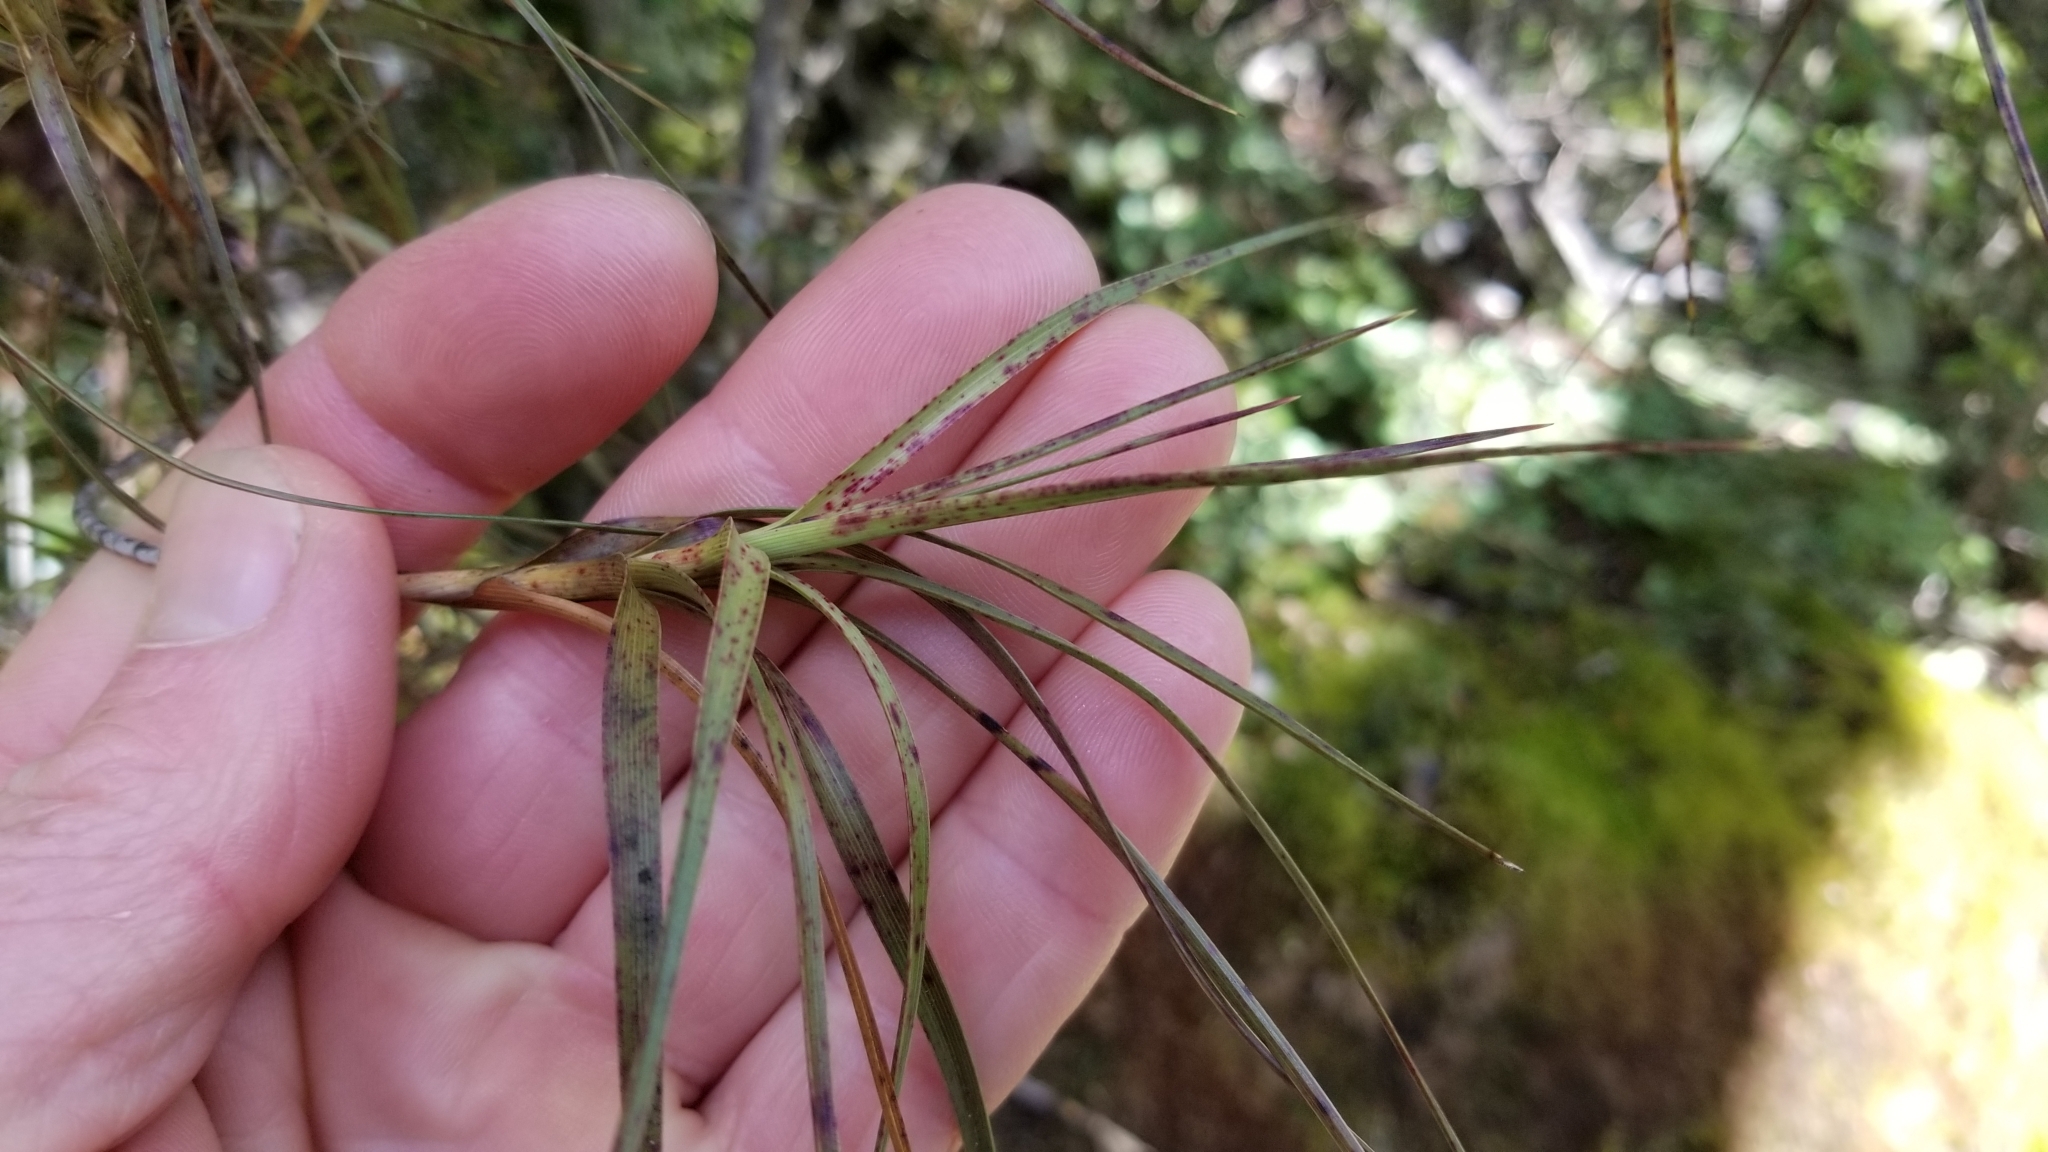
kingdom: Plantae
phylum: Tracheophyta
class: Magnoliopsida
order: Ericales
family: Ericaceae
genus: Dracophyllum
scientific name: Dracophyllum longifolium
